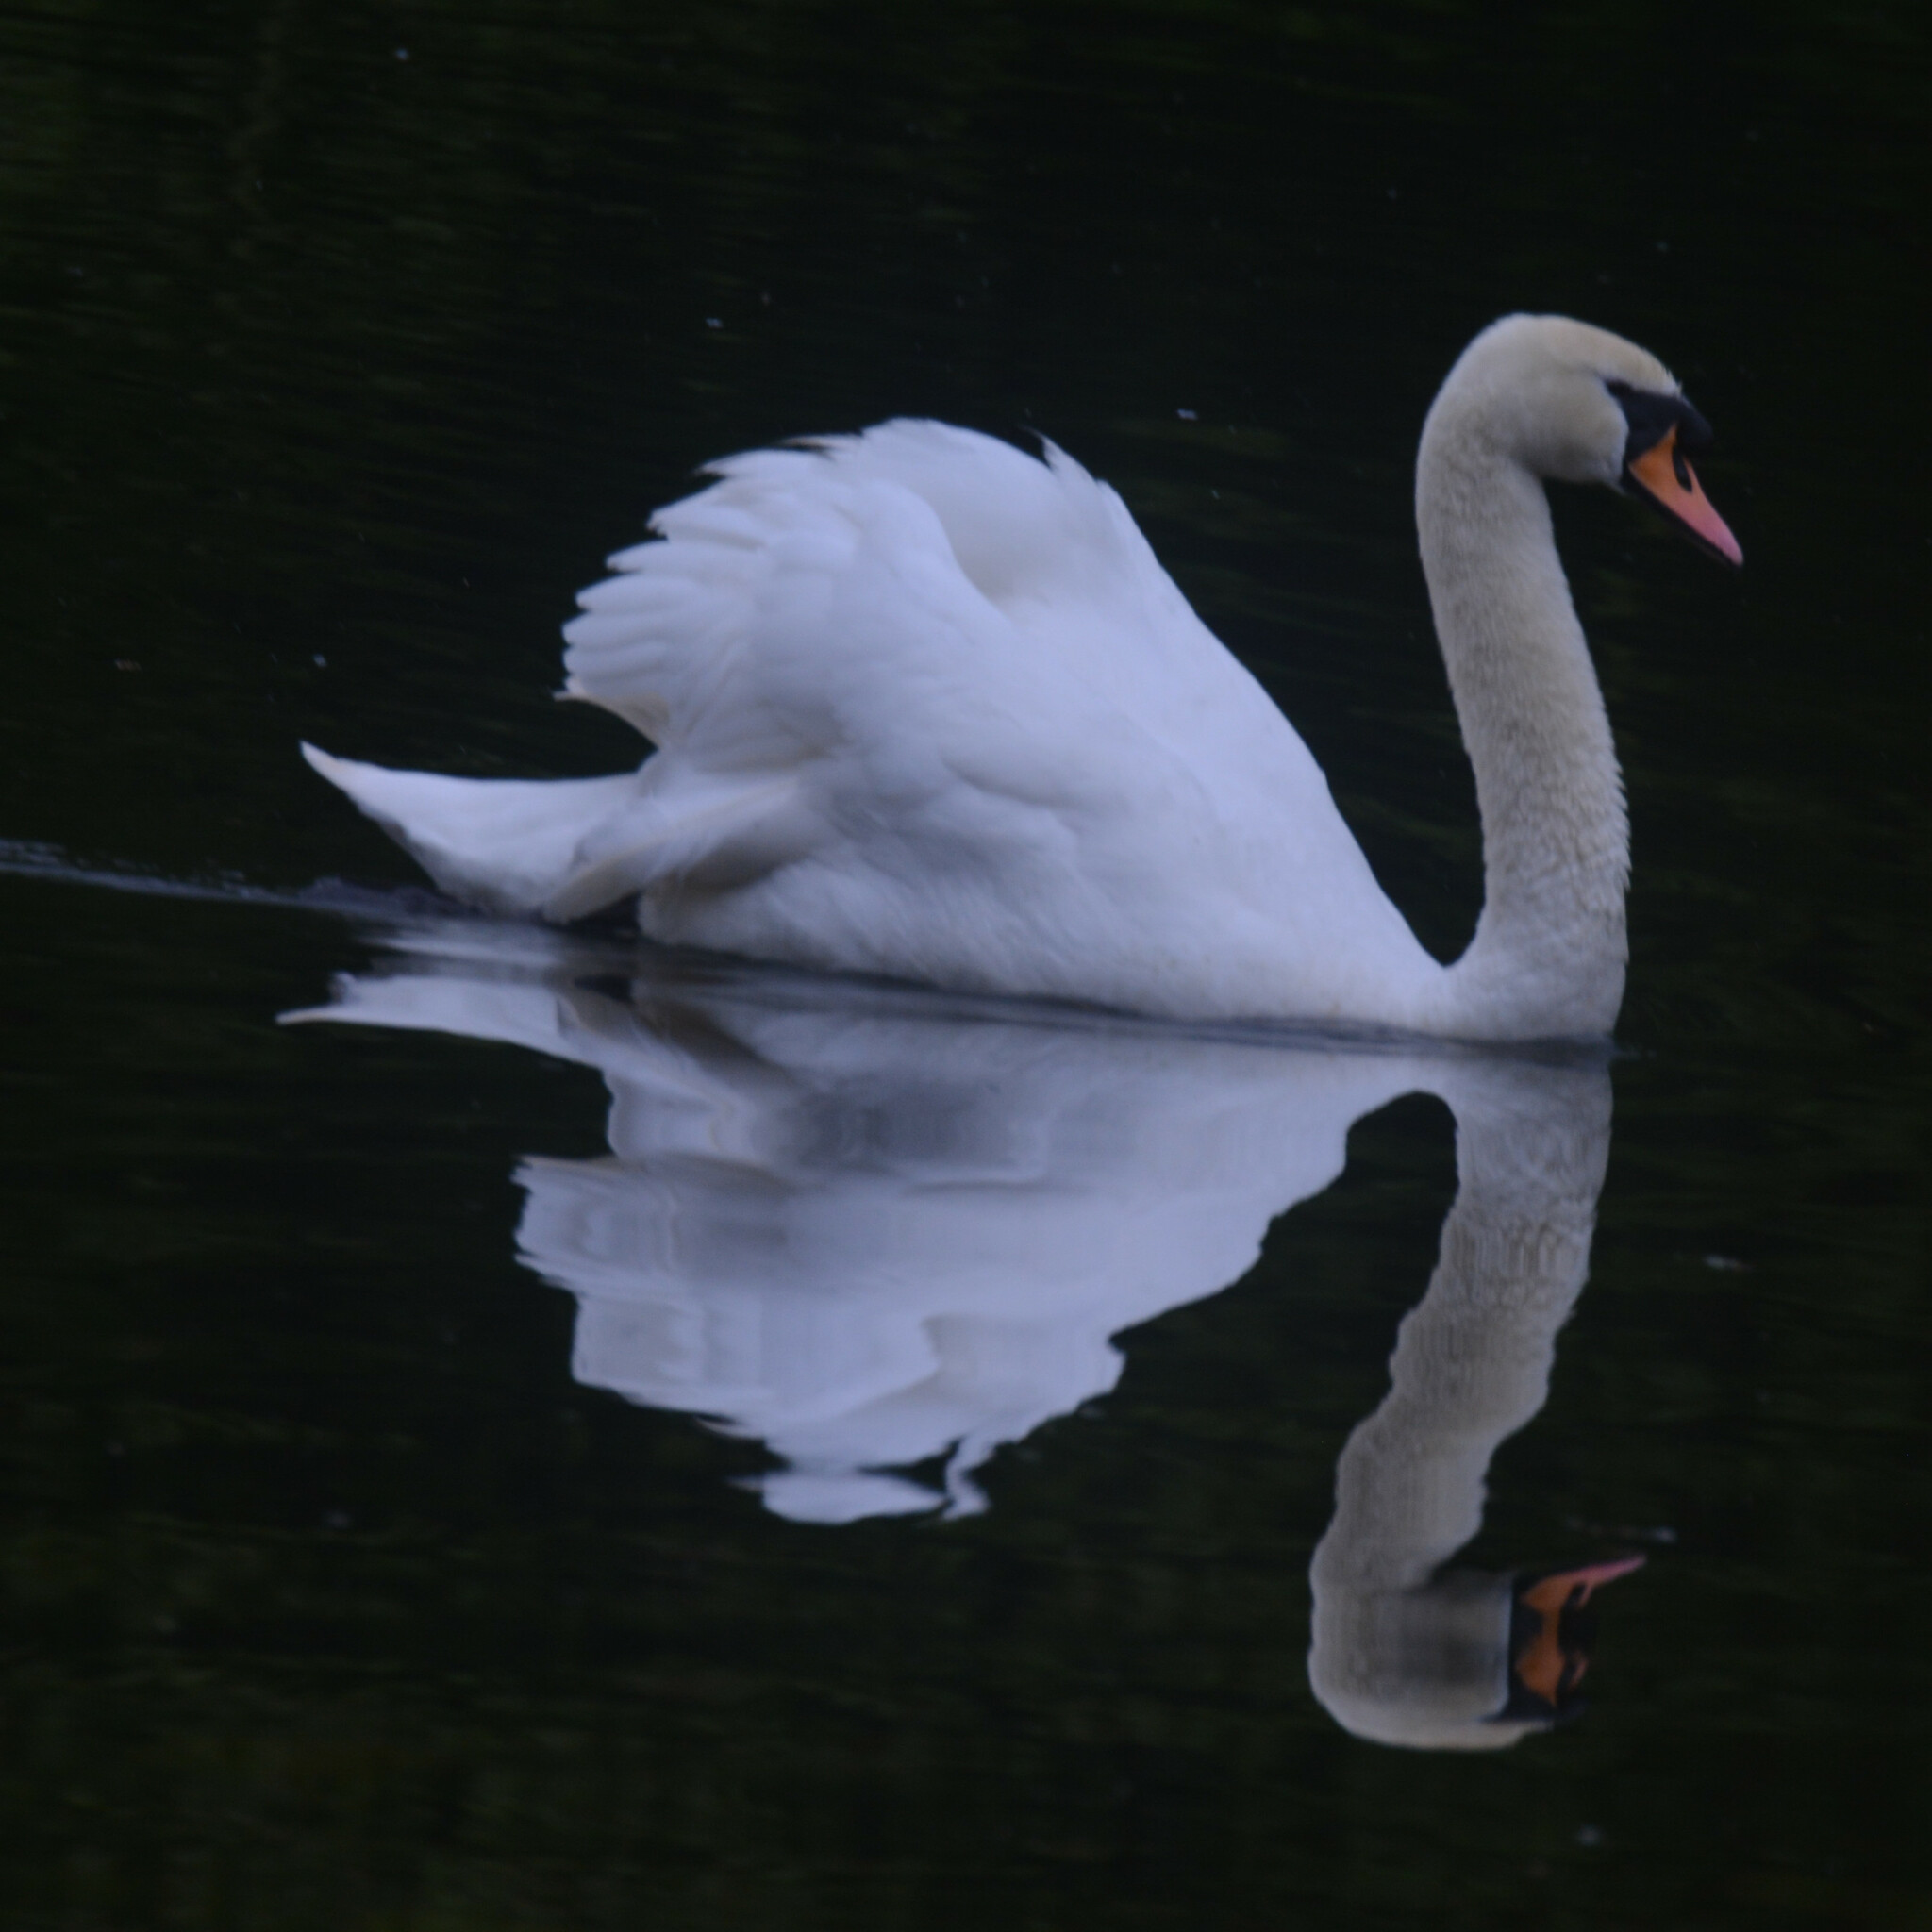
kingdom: Animalia
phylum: Chordata
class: Aves
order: Anseriformes
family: Anatidae
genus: Cygnus
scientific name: Cygnus olor
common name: Mute swan
